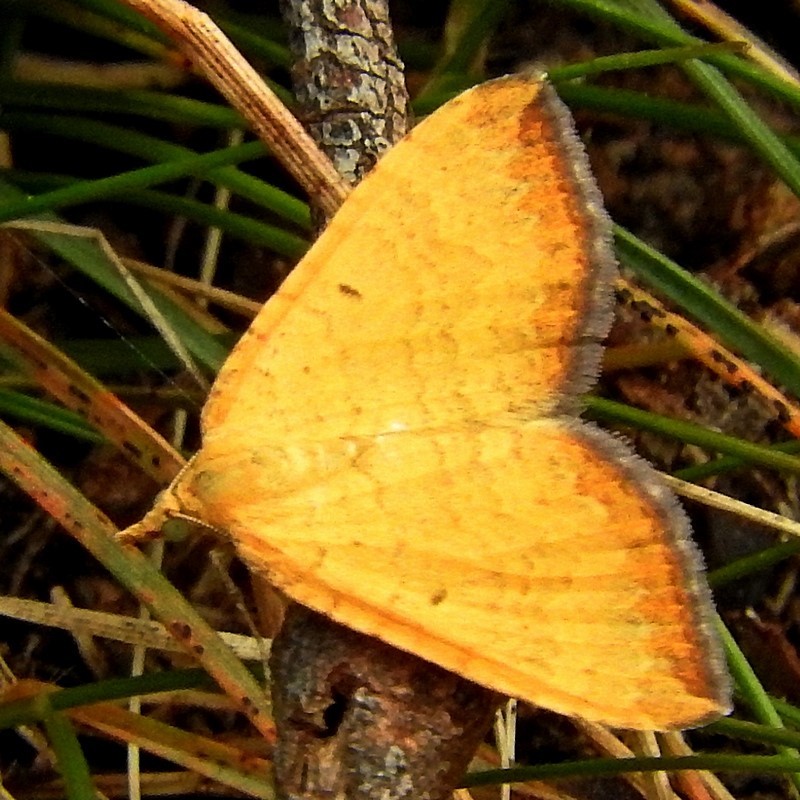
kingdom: Animalia
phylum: Arthropoda
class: Insecta
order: Lepidoptera
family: Geometridae
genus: Anachloris
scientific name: Anachloris subochraria
